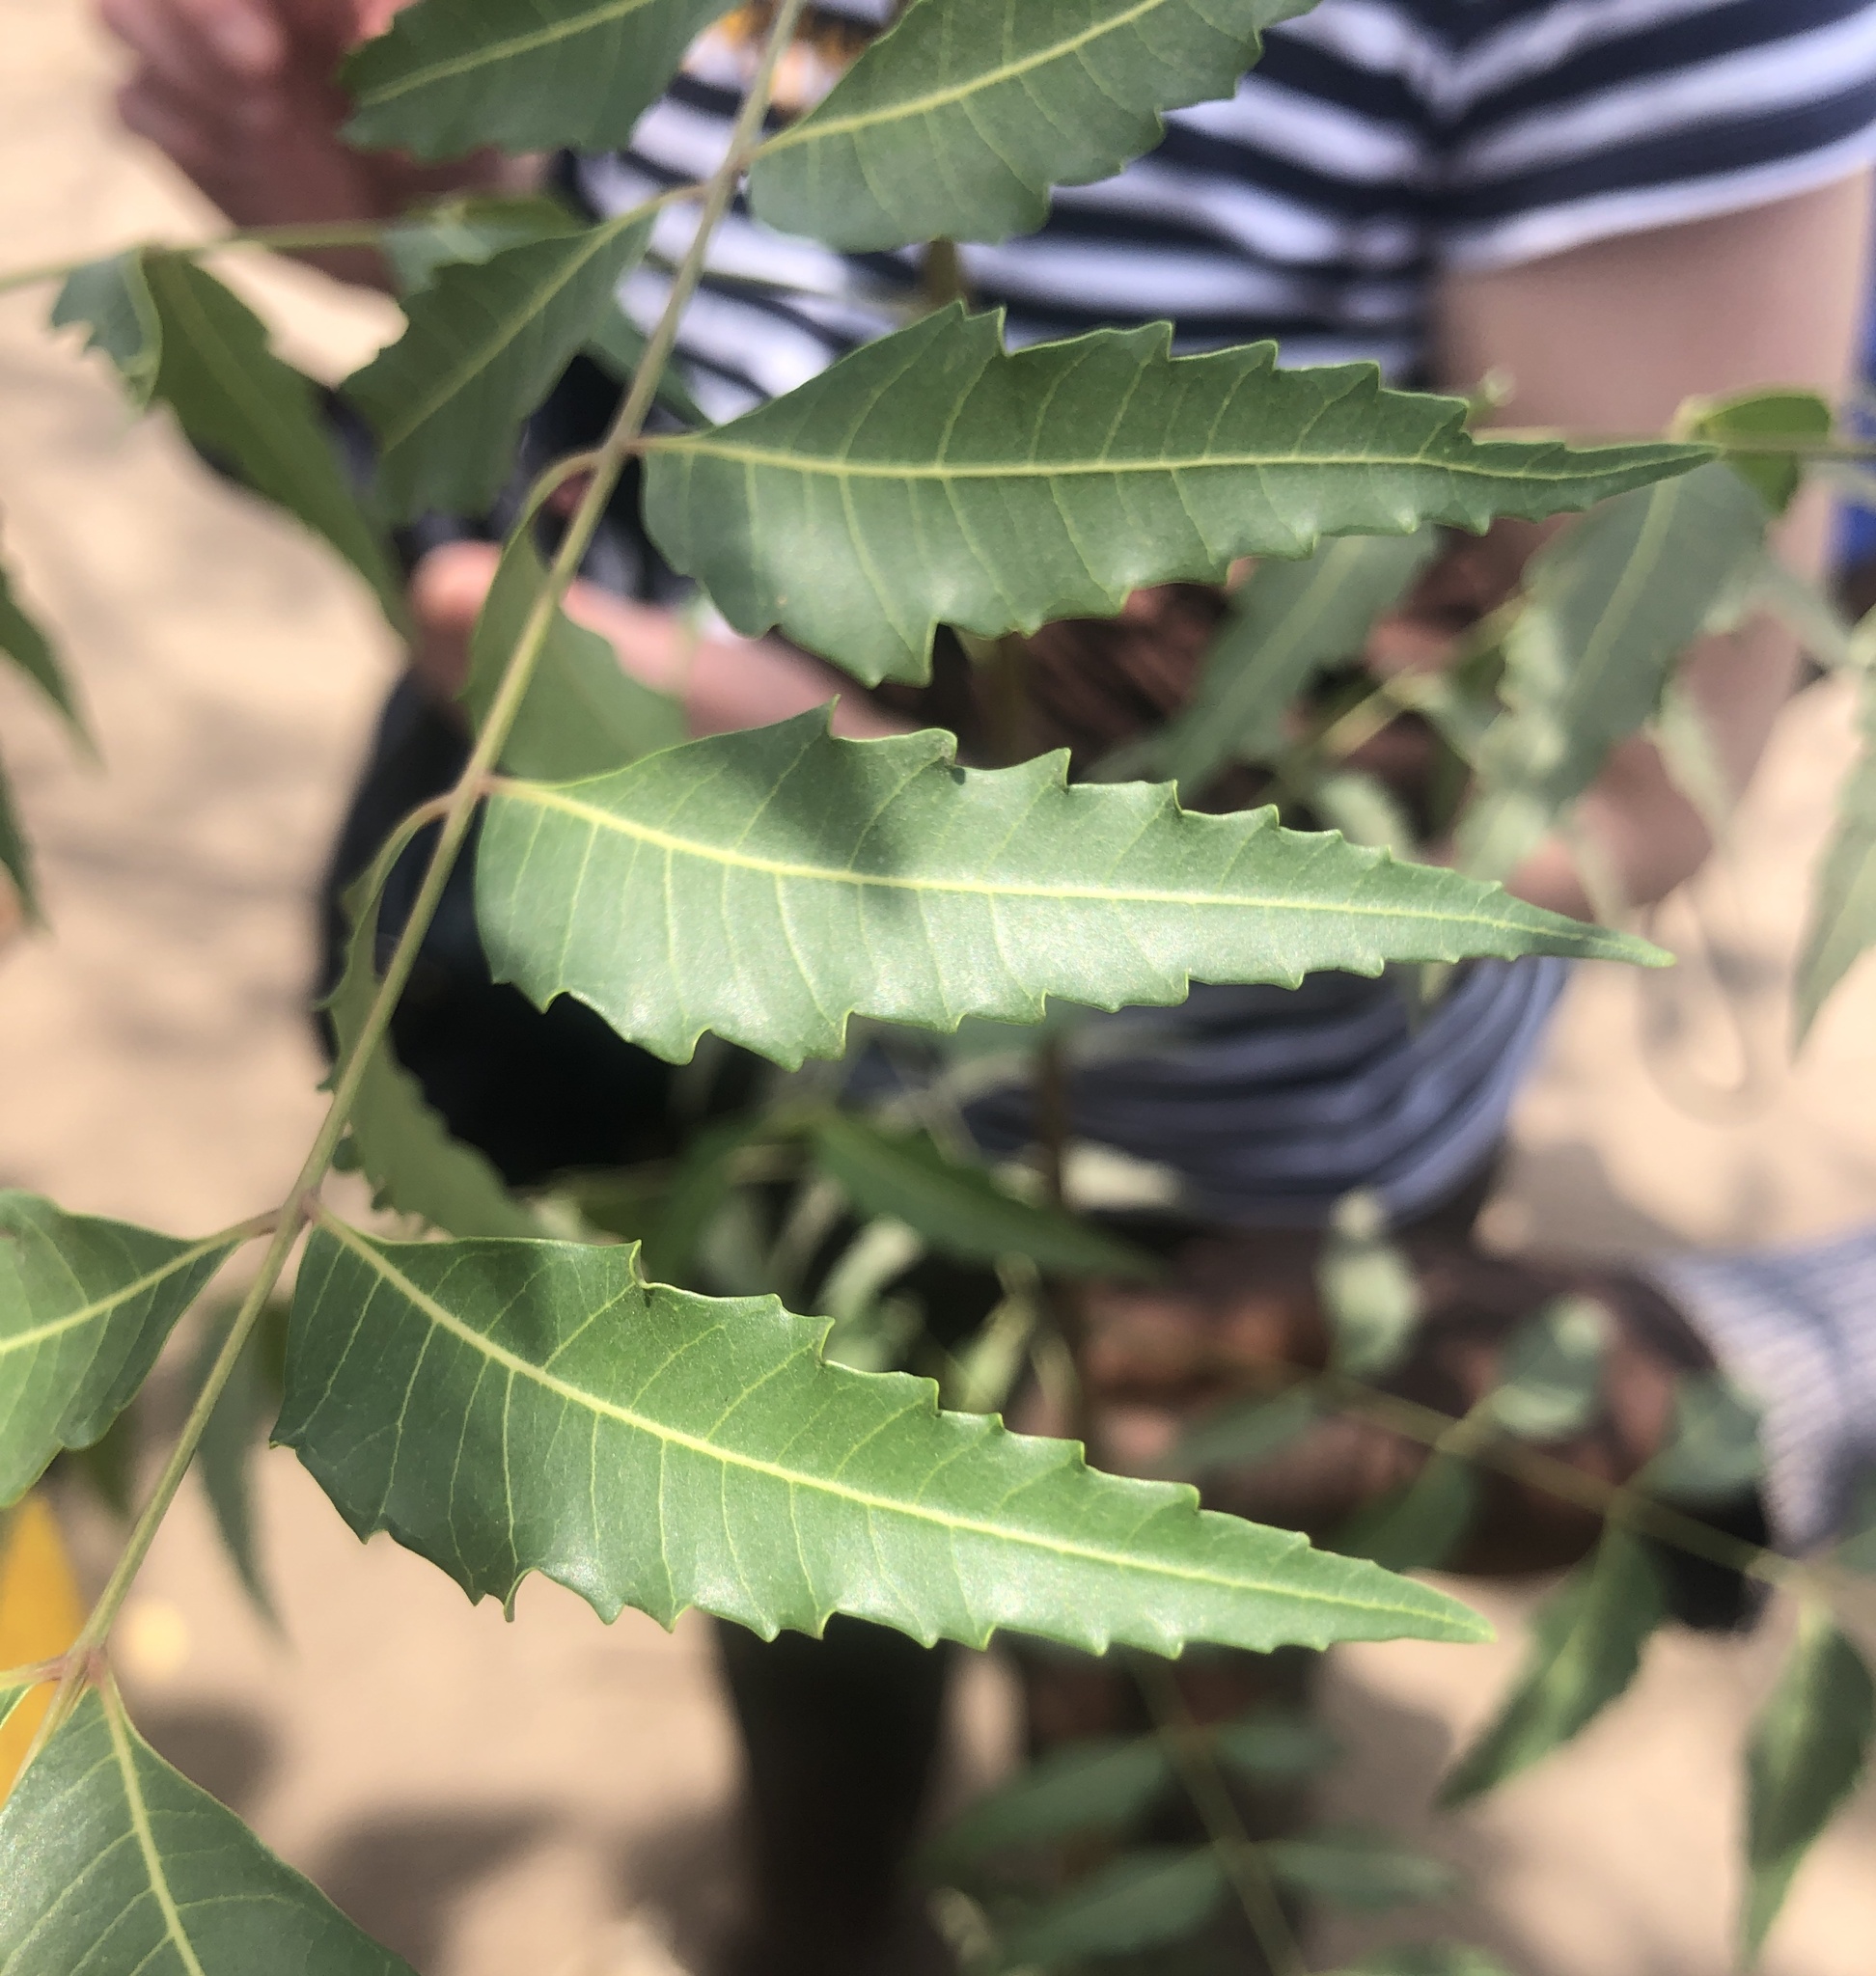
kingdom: Plantae
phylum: Tracheophyta
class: Magnoliopsida
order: Sapindales
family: Meliaceae
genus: Azadirachta
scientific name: Azadirachta indica
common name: Neem
